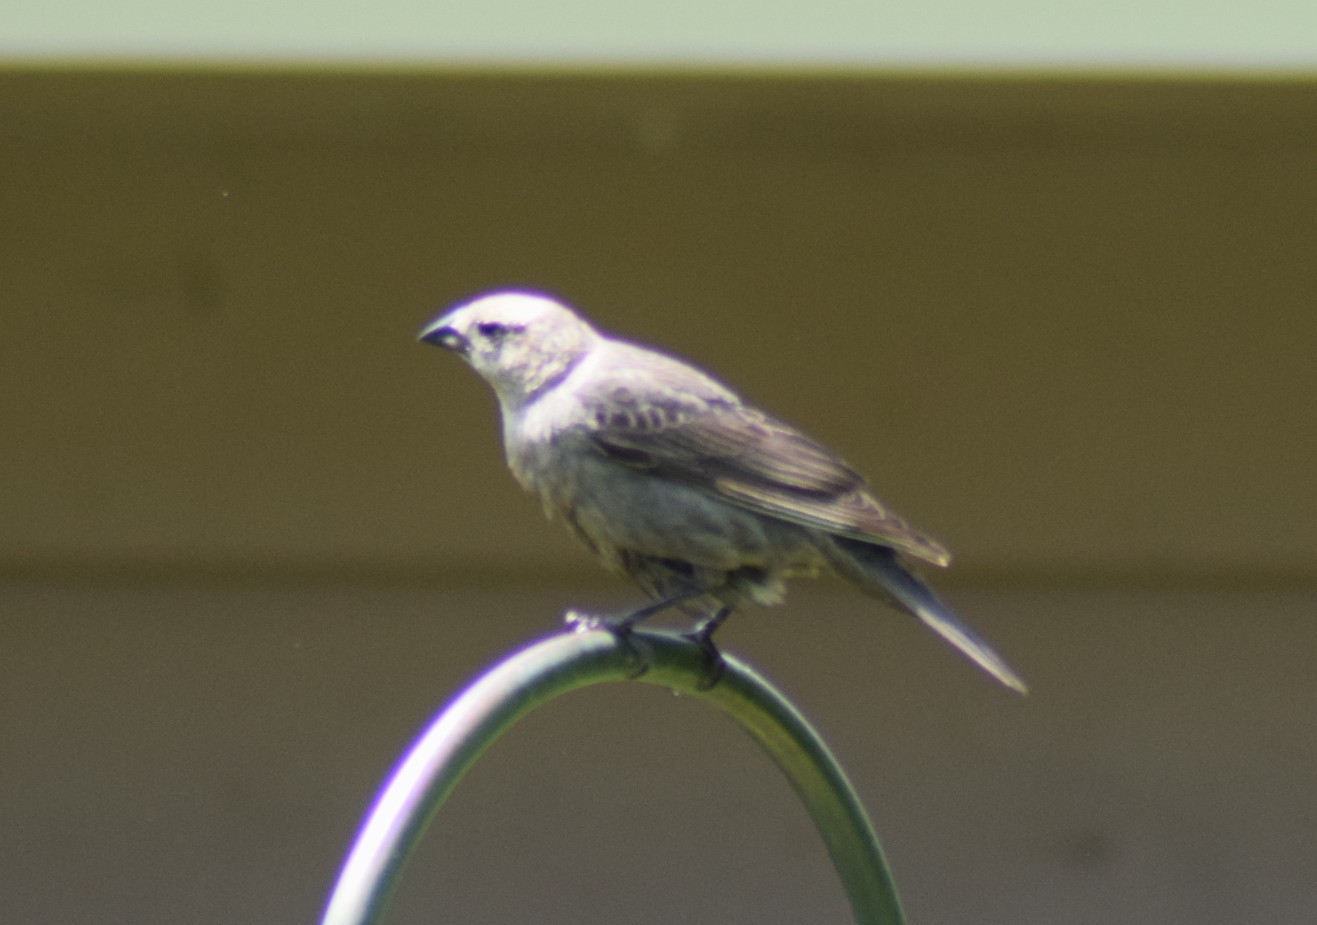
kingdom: Animalia
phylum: Chordata
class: Aves
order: Passeriformes
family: Icteridae
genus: Molothrus
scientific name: Molothrus ater
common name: Brown-headed cowbird
